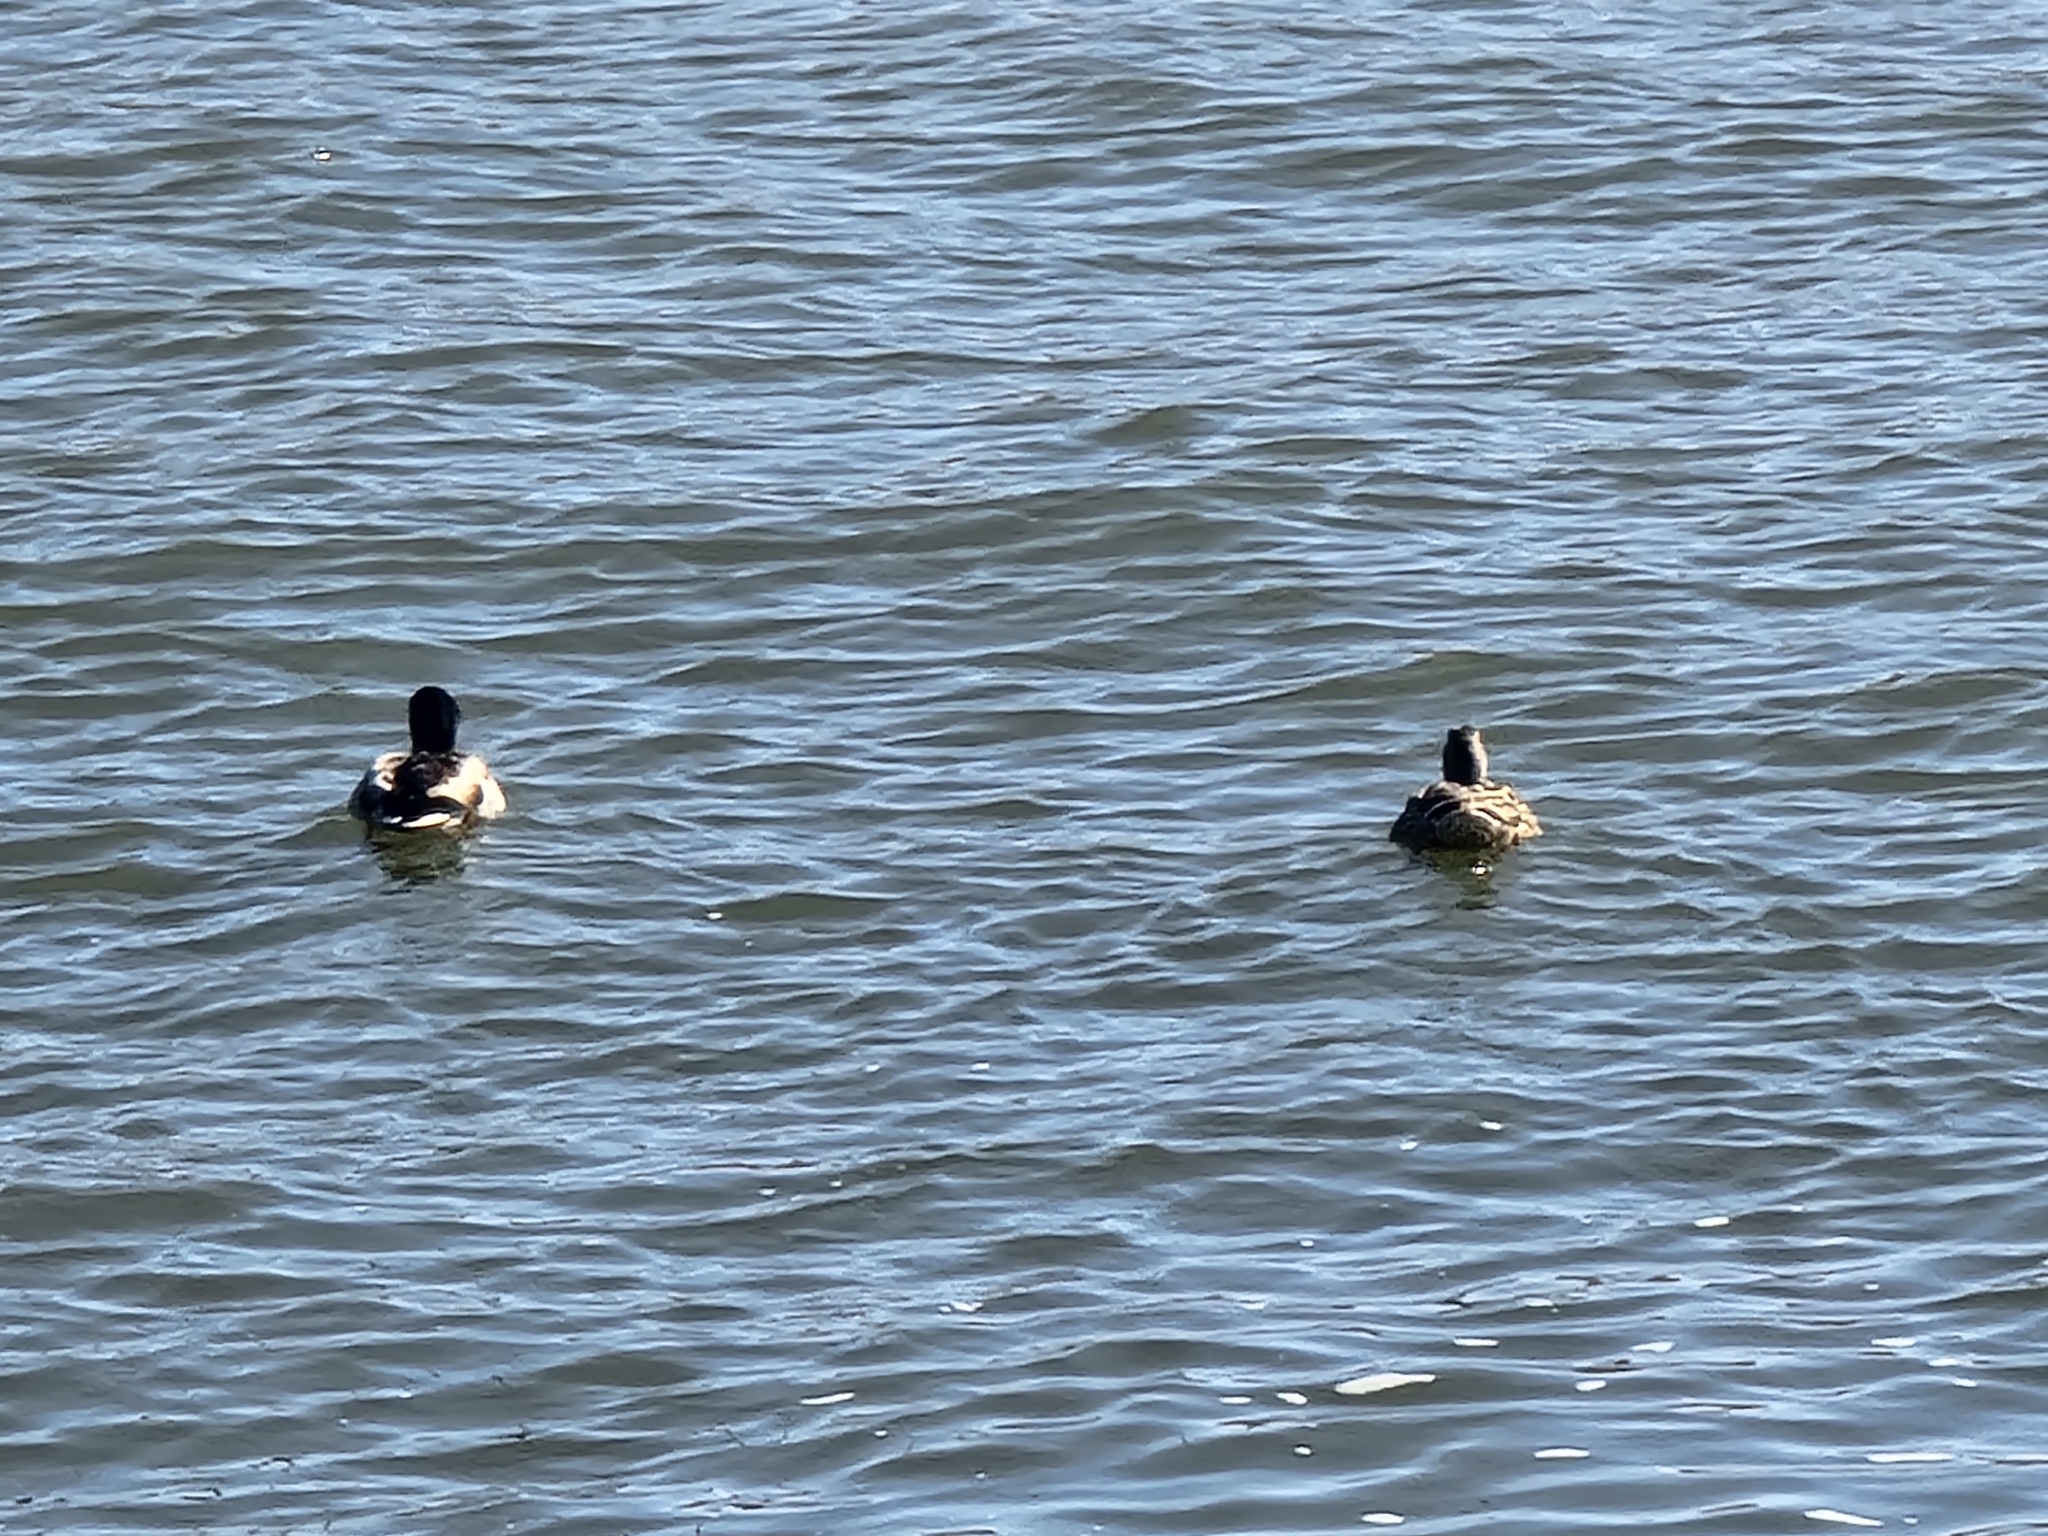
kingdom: Animalia
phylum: Chordata
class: Aves
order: Anseriformes
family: Anatidae
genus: Anas
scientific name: Anas platyrhynchos
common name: Mallard
